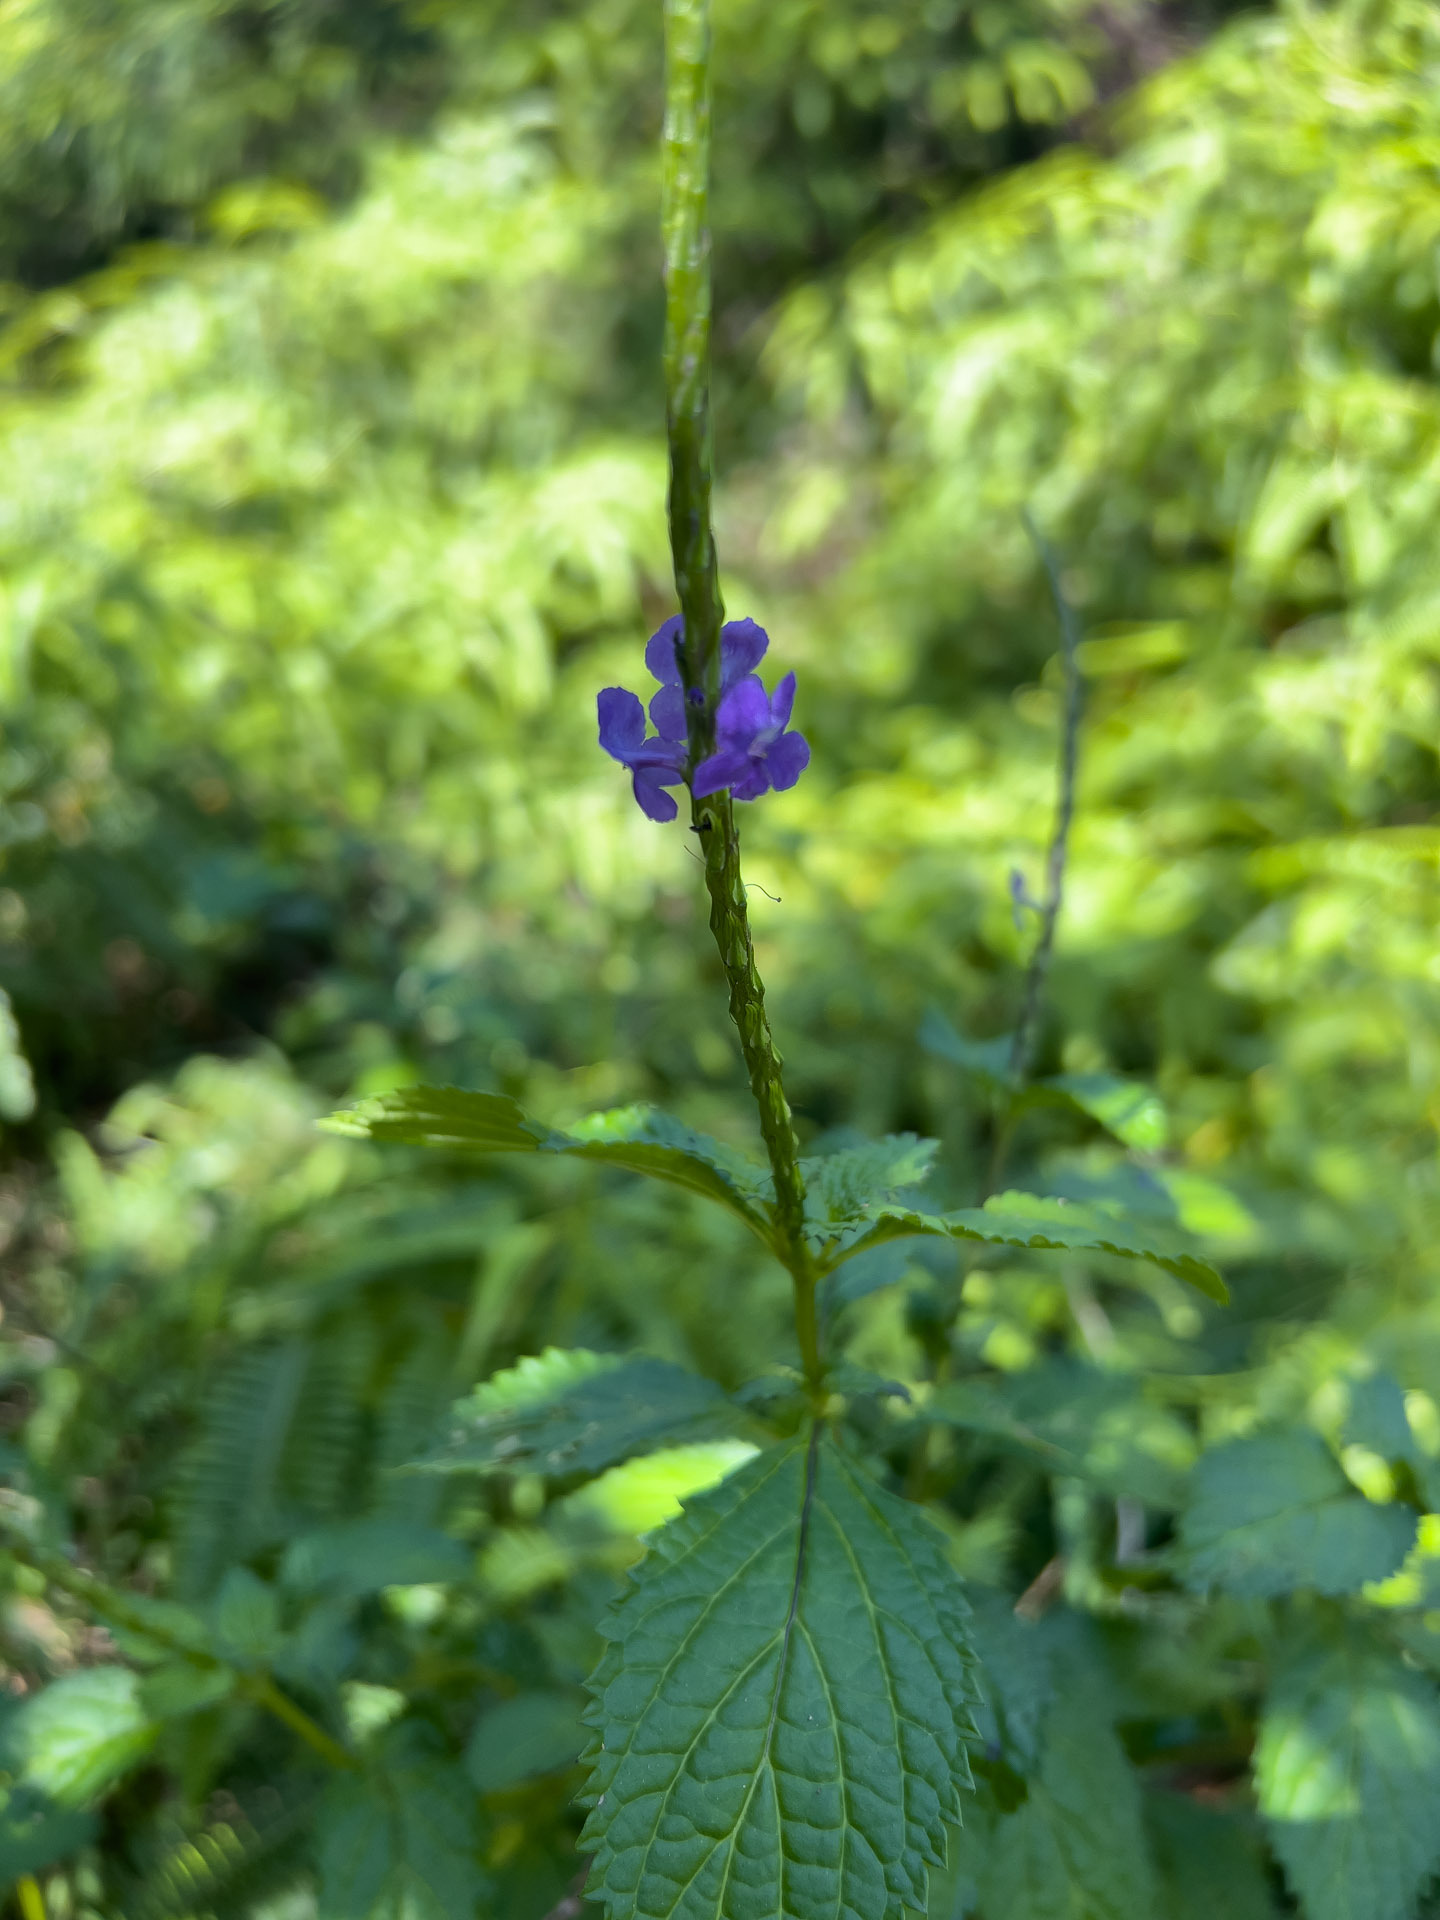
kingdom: Plantae
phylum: Tracheophyta
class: Magnoliopsida
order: Lamiales
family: Verbenaceae
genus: Stachytarpheta
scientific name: Stachytarpheta cayennensis
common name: Cayenne porterweed
